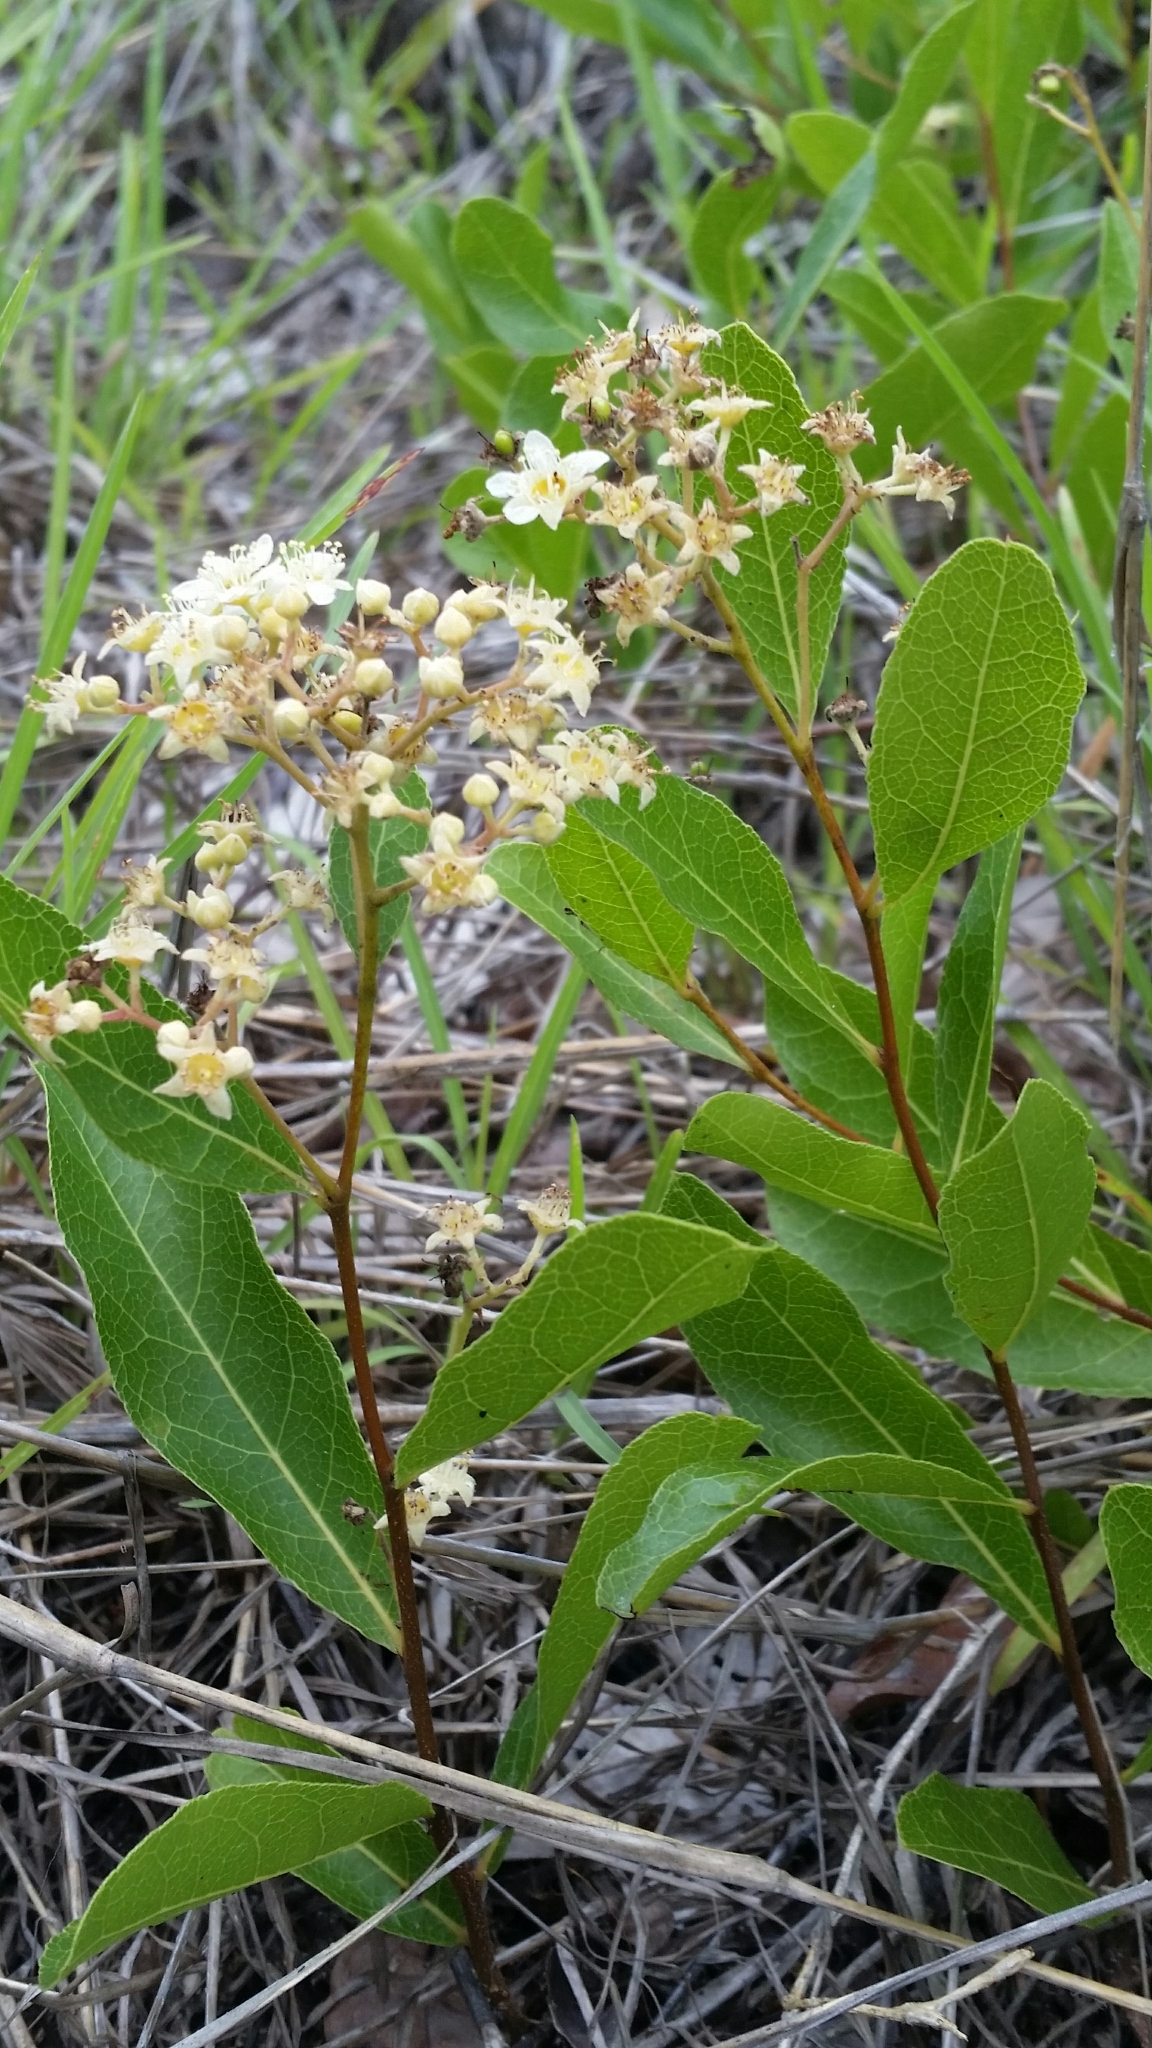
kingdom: Plantae
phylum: Tracheophyta
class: Magnoliopsida
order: Malpighiales
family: Chrysobalanaceae
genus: Geobalanus
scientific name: Geobalanus oblongifolius
